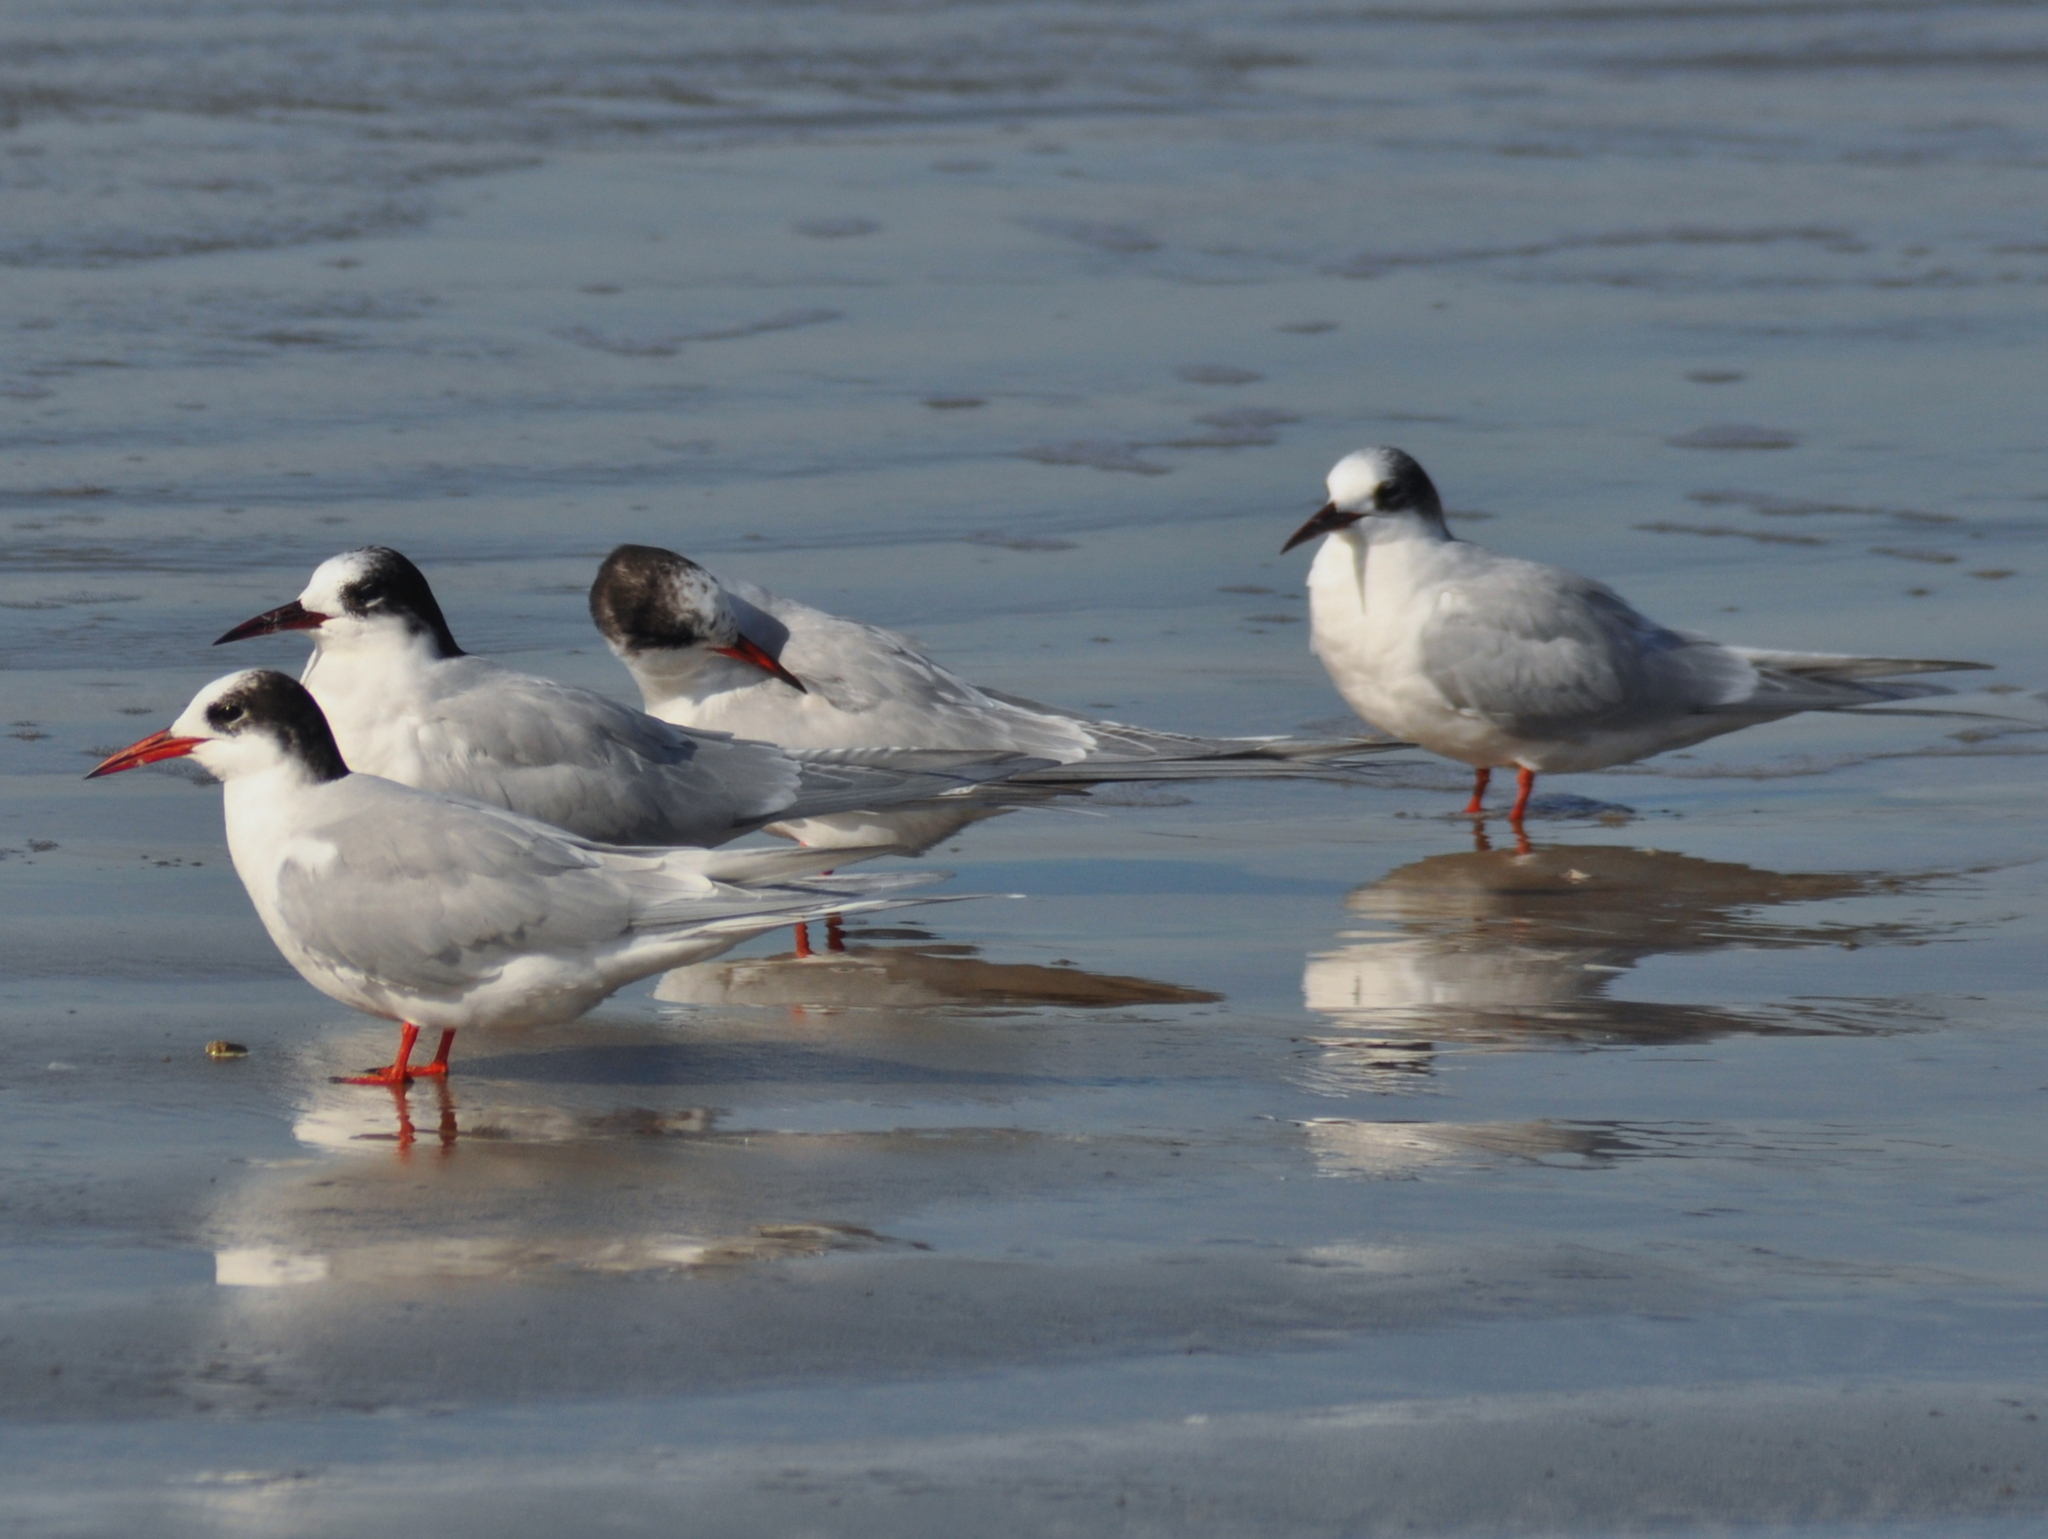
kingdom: Animalia
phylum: Chordata
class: Aves
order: Charadriiformes
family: Laridae
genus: Sterna
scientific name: Sterna hirundinacea
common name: South american tern
